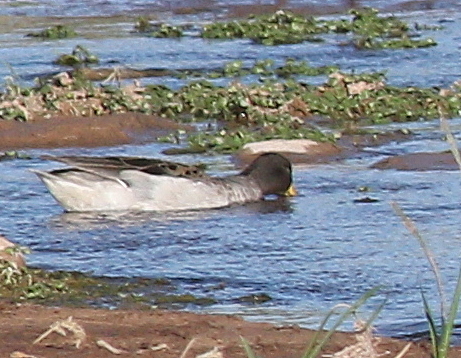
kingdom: Animalia
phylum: Chordata
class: Aves
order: Anseriformes
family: Anatidae
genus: Anas
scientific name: Anas flavirostris
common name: Yellow-billed teal
